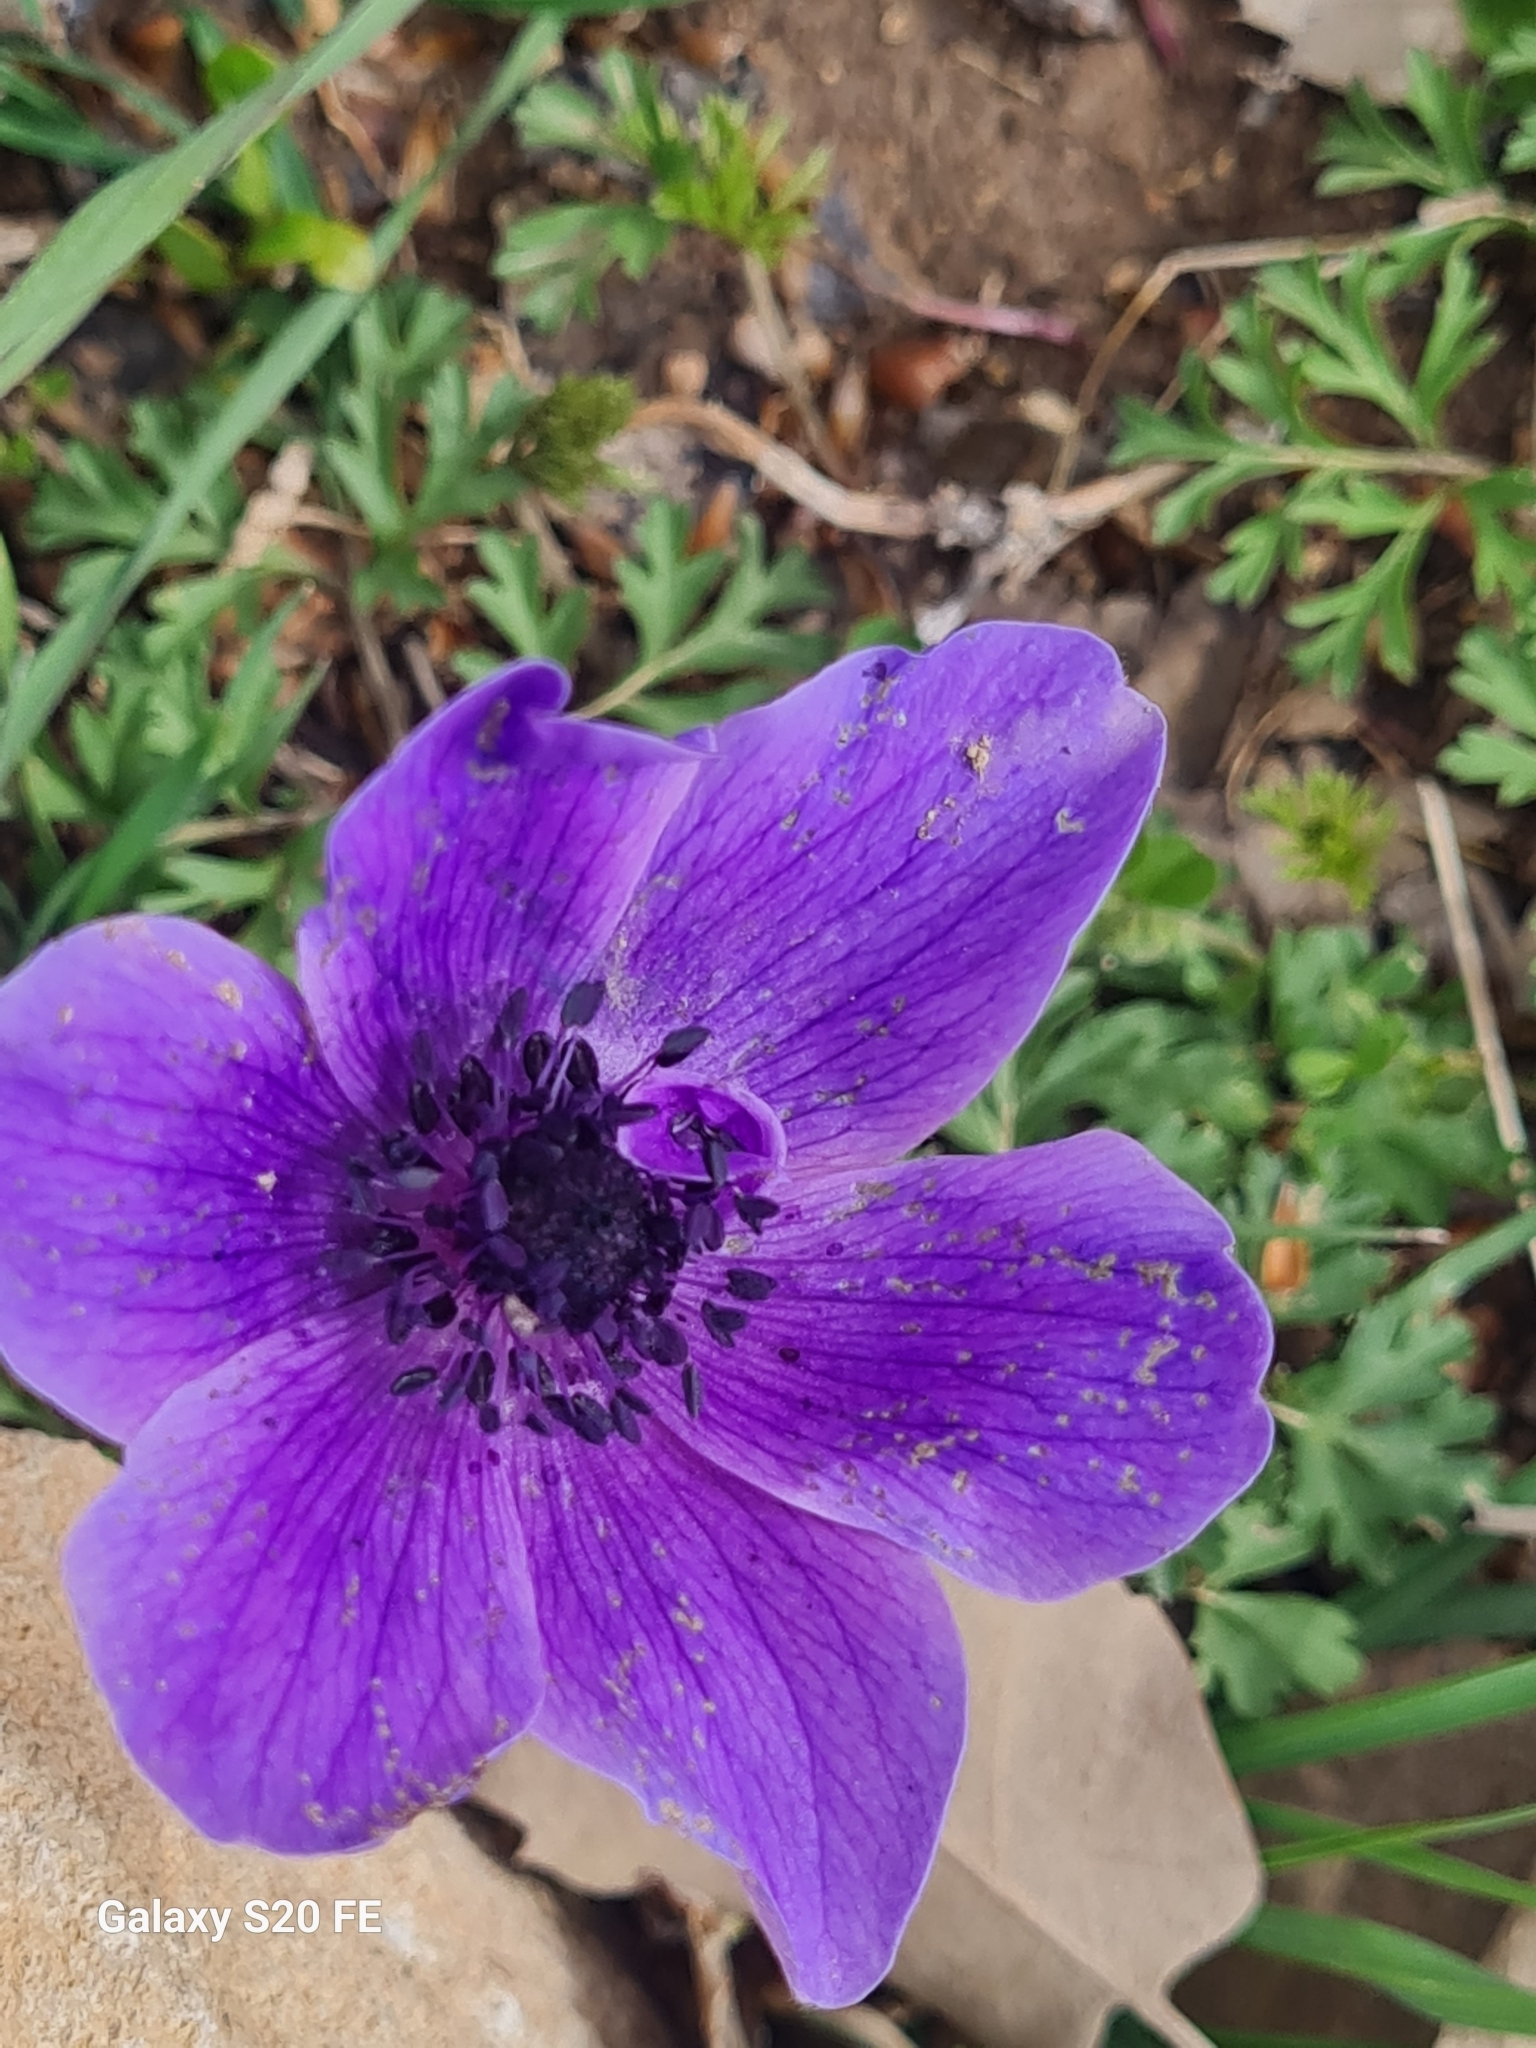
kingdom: Plantae
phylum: Tracheophyta
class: Magnoliopsida
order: Ranunculales
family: Ranunculaceae
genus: Anemone
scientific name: Anemone coronaria
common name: Poppy anemone
